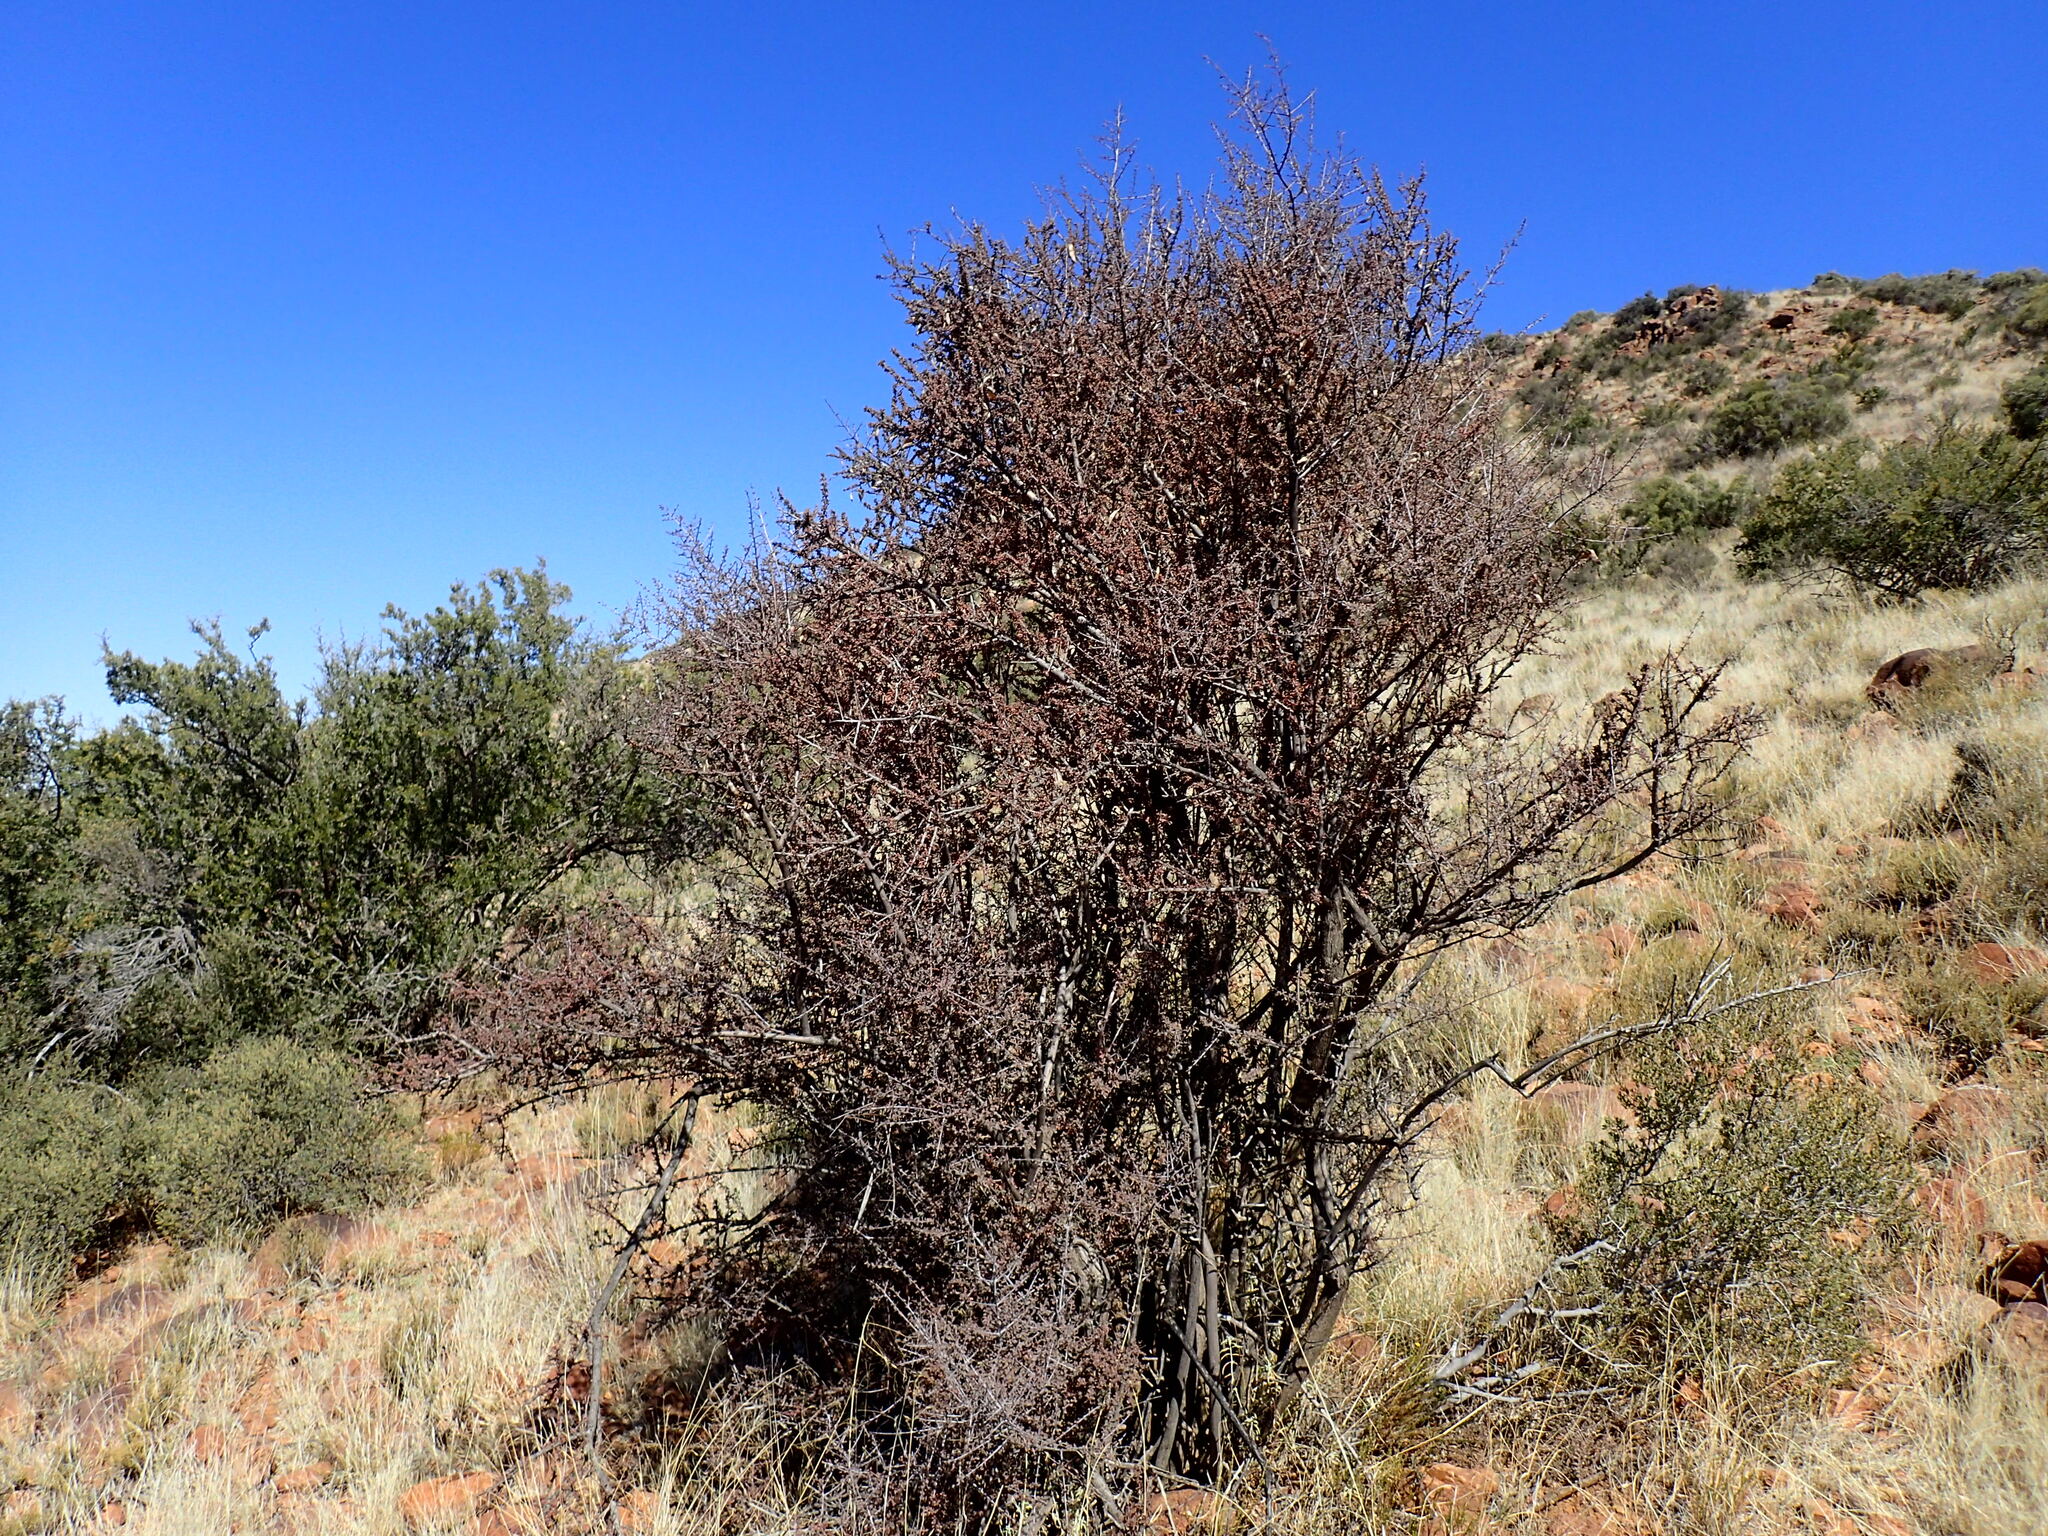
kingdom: Plantae
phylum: Tracheophyta
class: Magnoliopsida
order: Lamiales
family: Bignoniaceae
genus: Rhigozum
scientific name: Rhigozum obovatum
